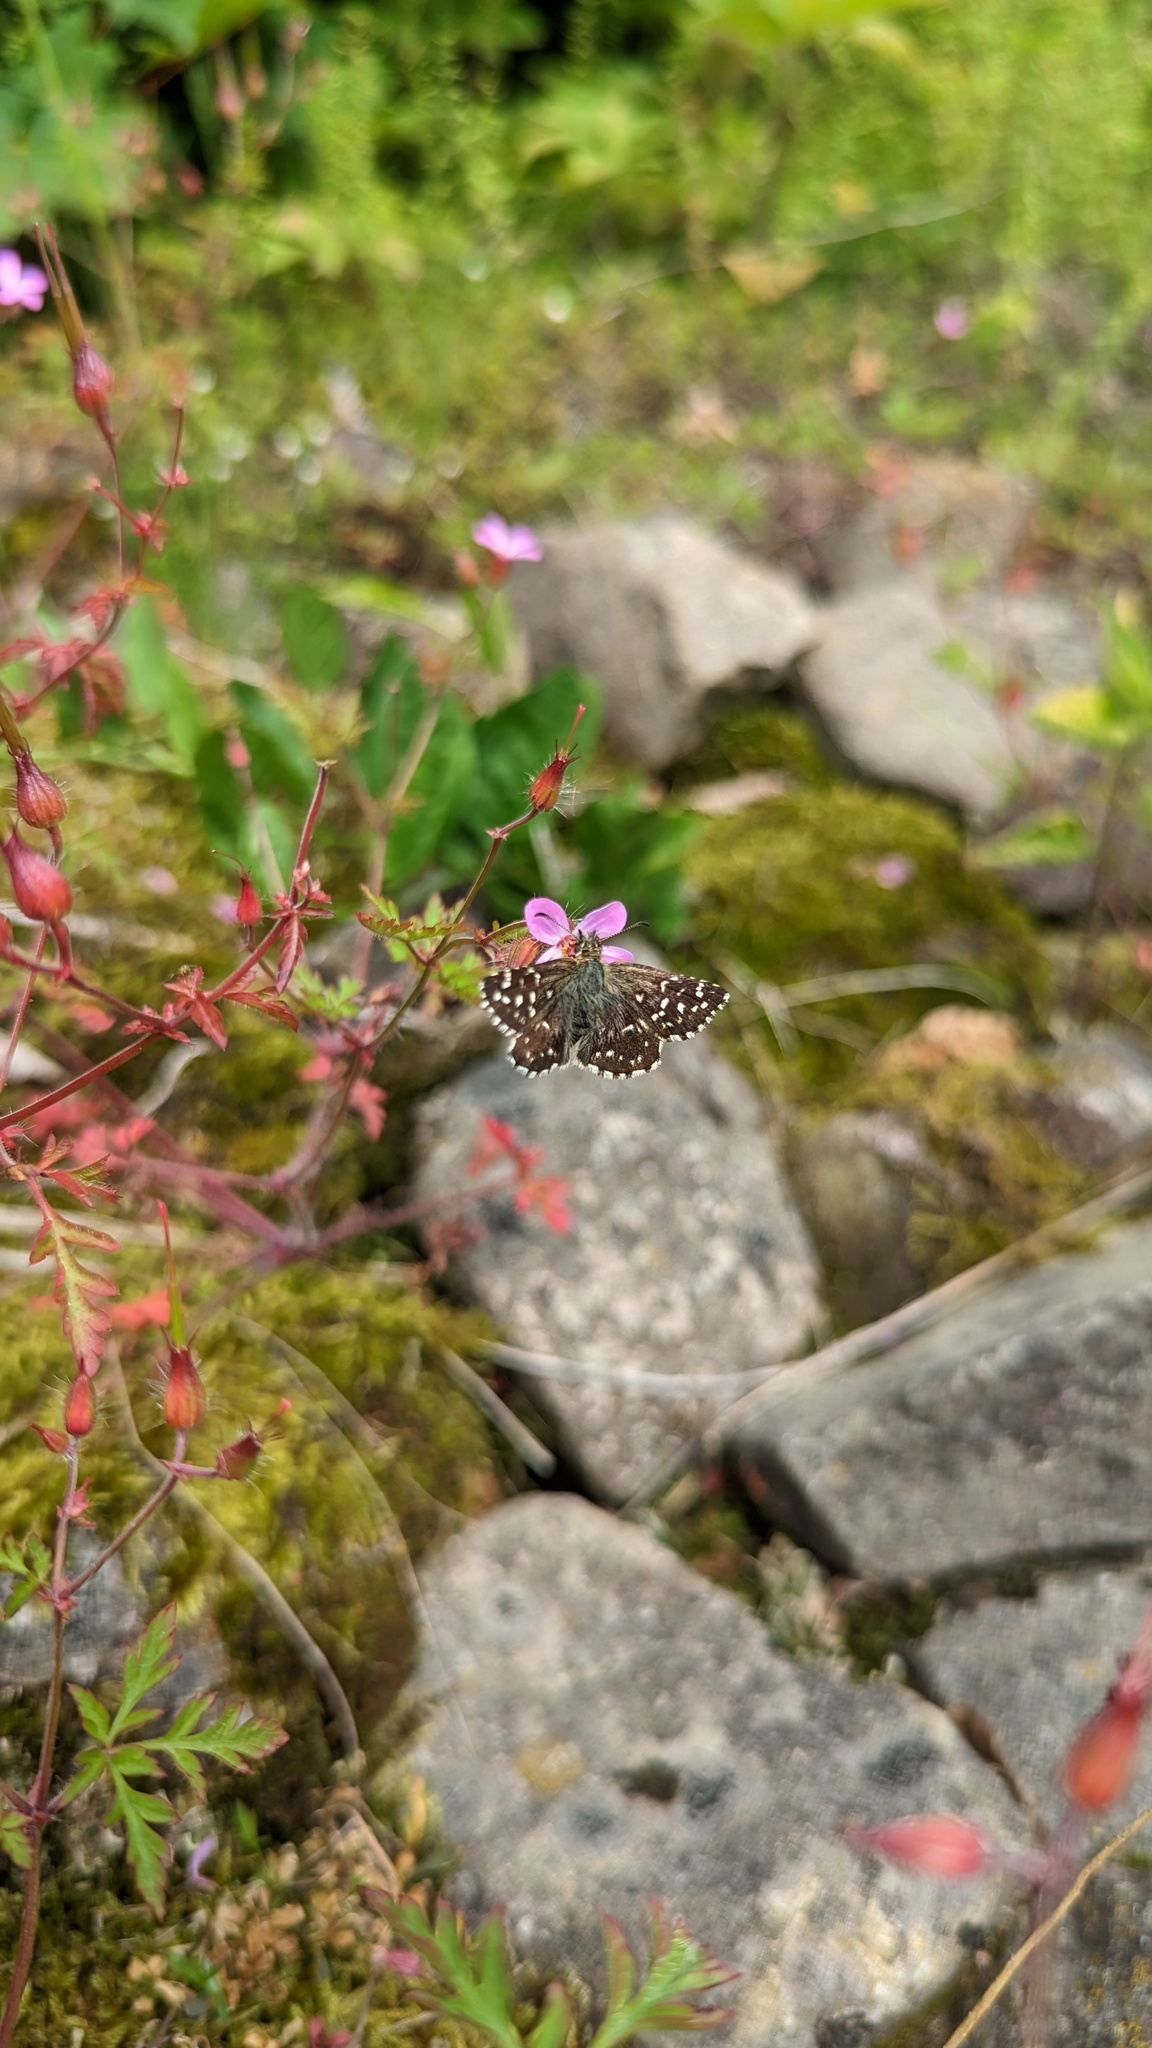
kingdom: Animalia
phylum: Arthropoda
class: Insecta
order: Lepidoptera
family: Hesperiidae
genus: Pyrgus
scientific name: Pyrgus malvae
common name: Grizzled skipper
